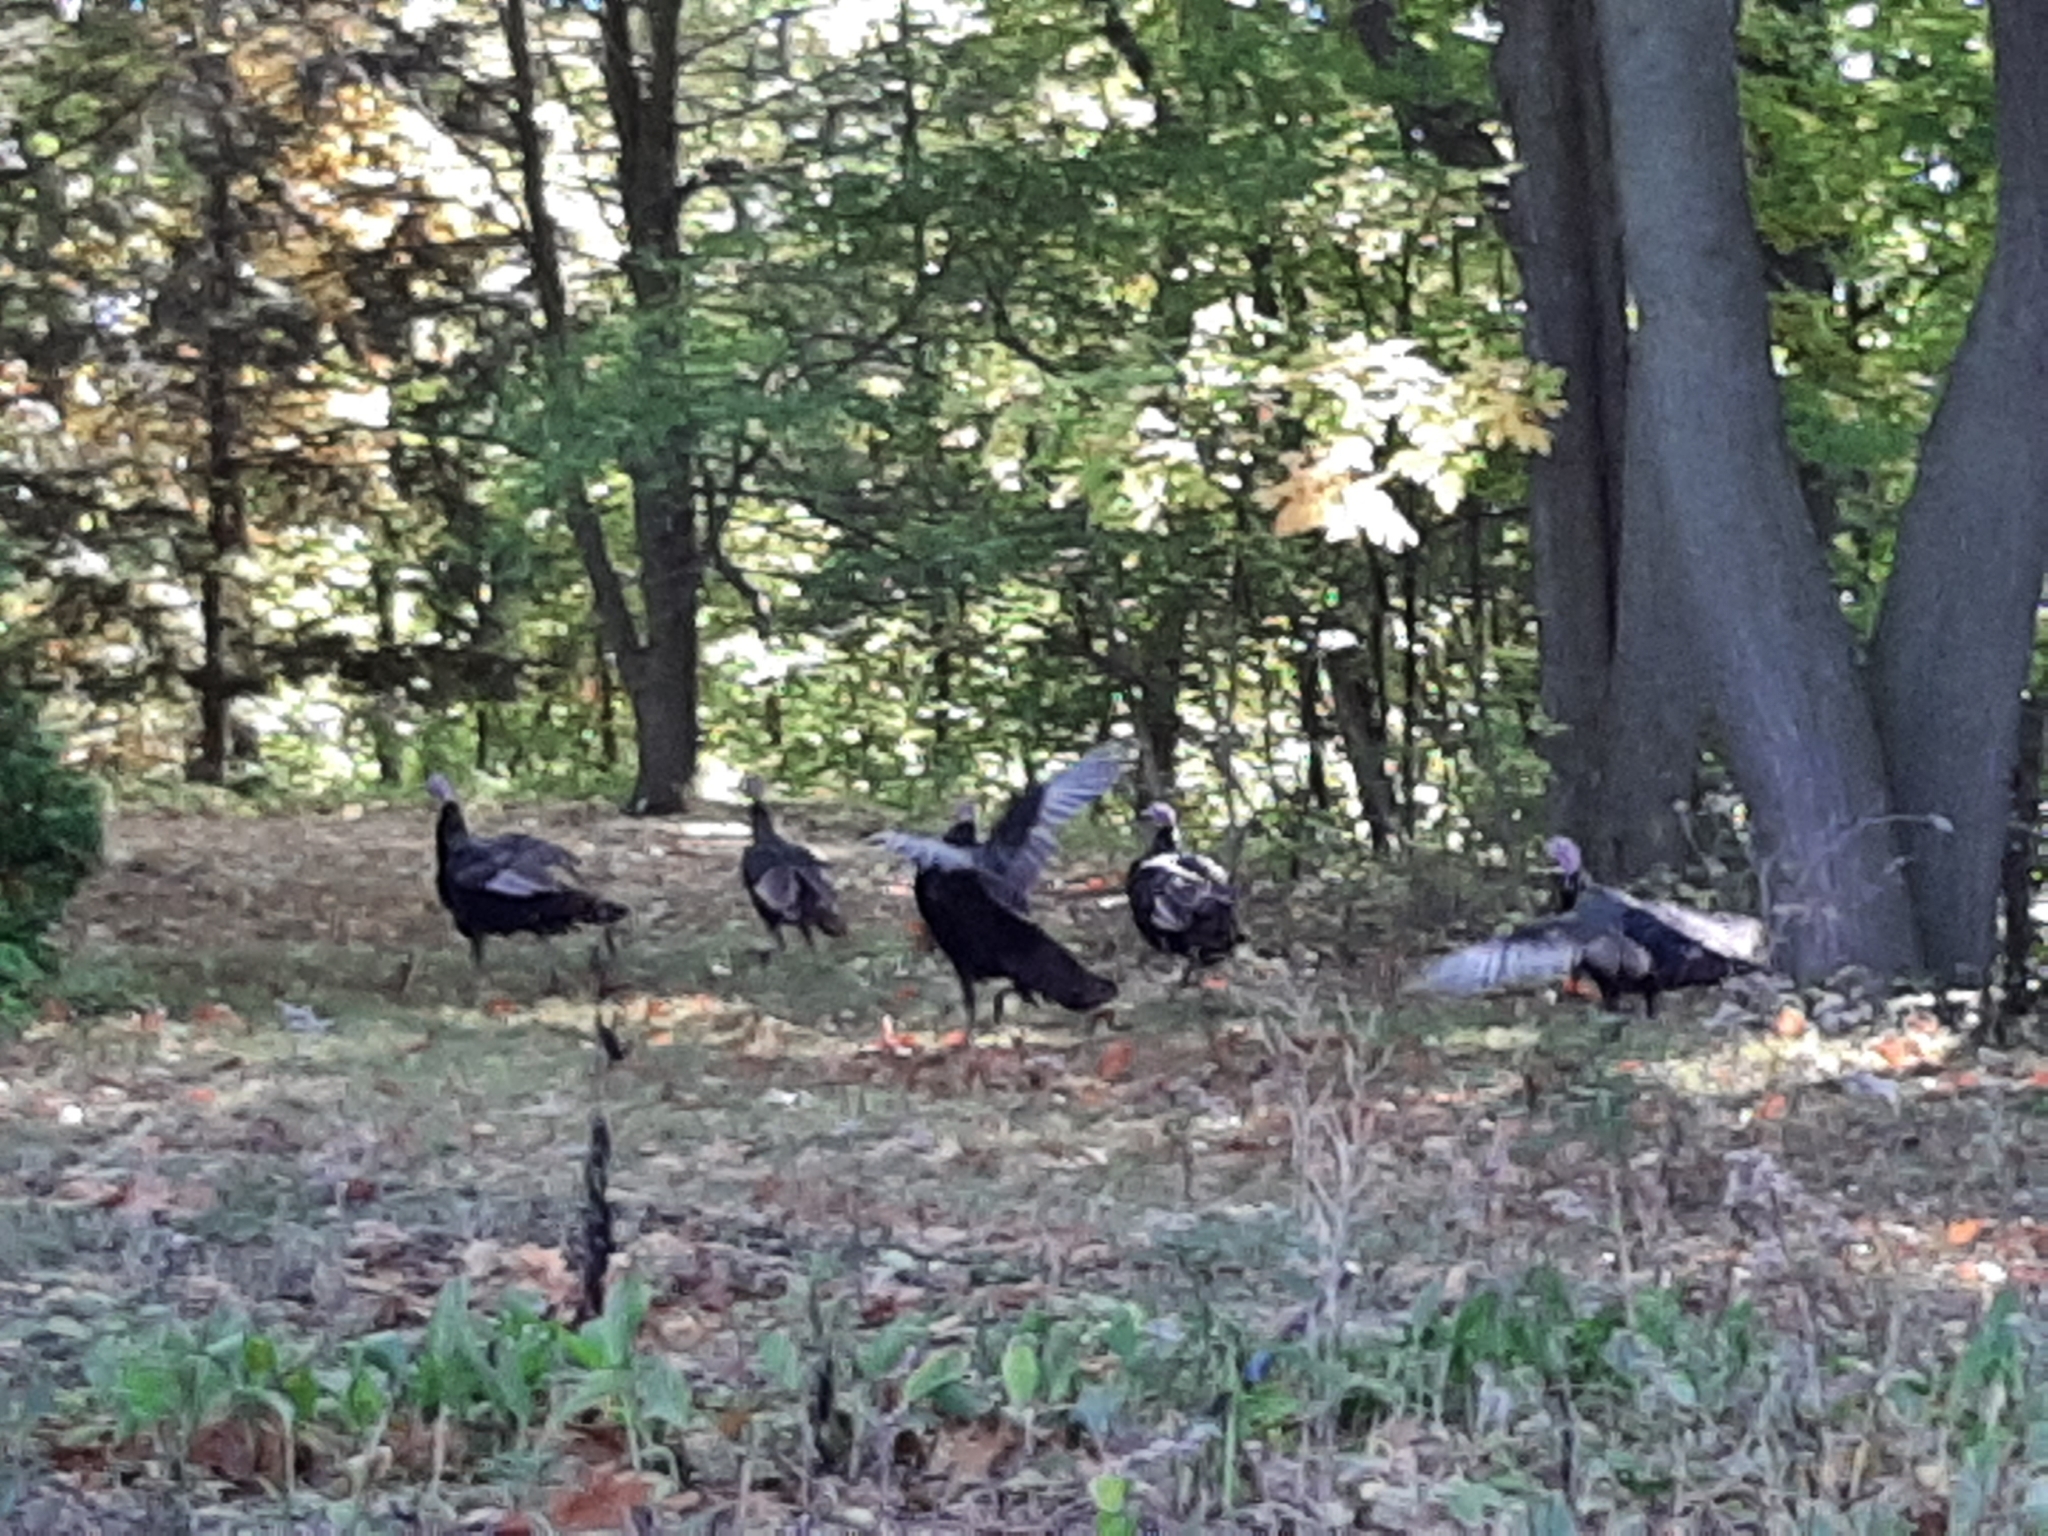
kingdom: Animalia
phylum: Chordata
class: Aves
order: Galliformes
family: Phasianidae
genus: Meleagris
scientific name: Meleagris gallopavo
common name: Wild turkey
